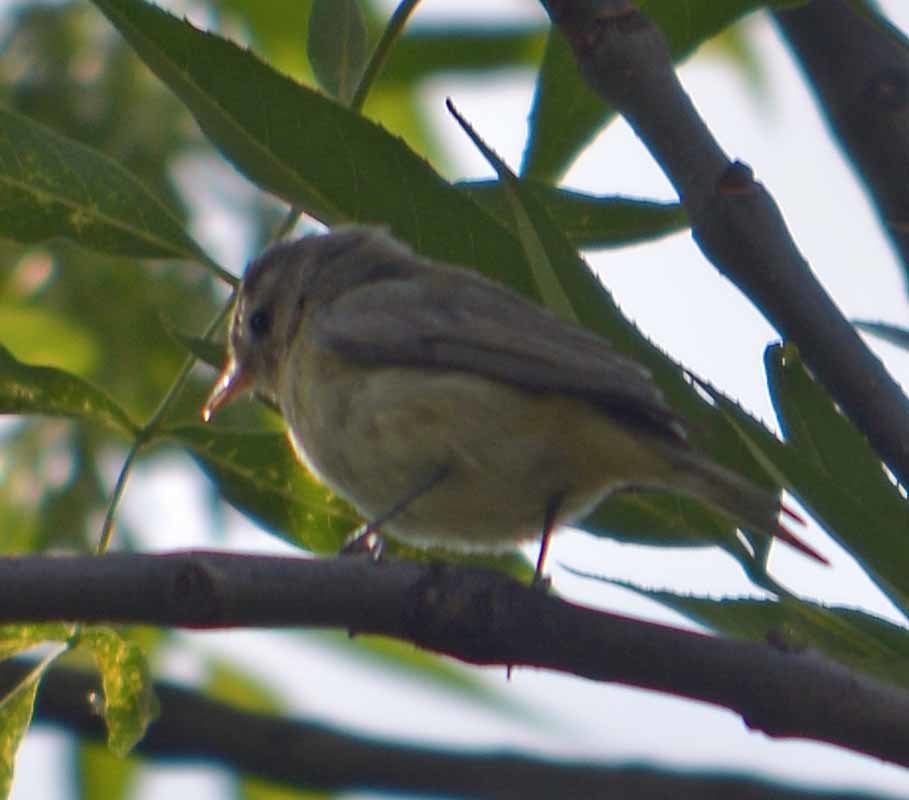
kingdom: Animalia
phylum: Chordata
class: Aves
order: Passeriformes
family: Vireonidae
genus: Vireo
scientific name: Vireo gilvus
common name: Warbling vireo
